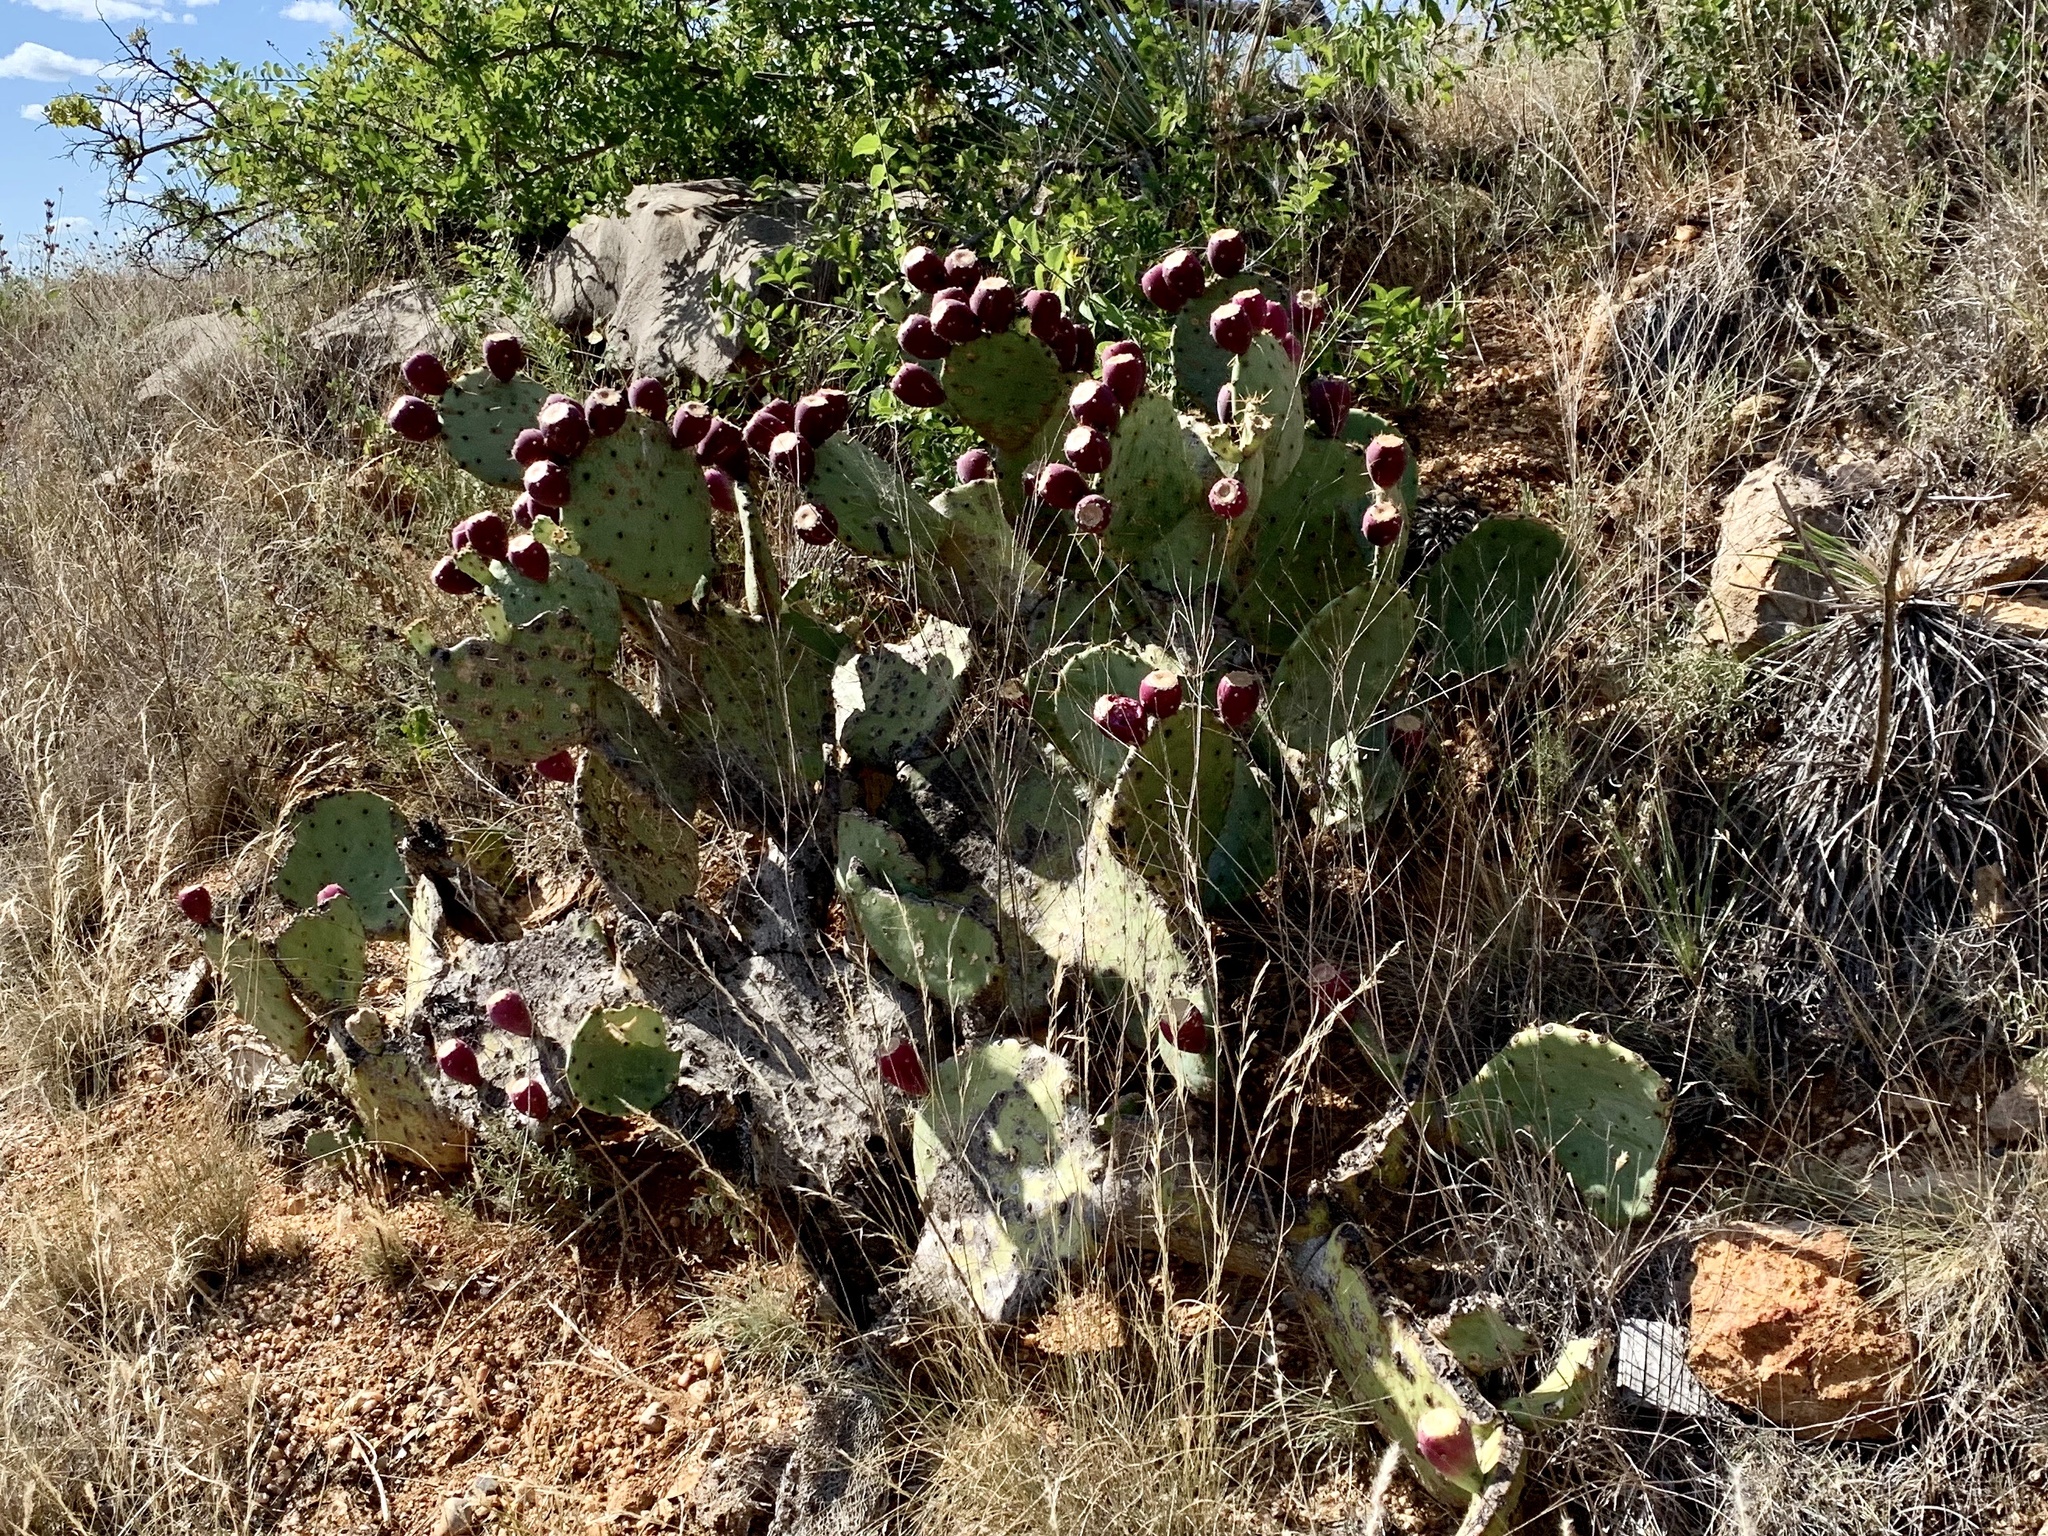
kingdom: Plantae
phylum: Tracheophyta
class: Magnoliopsida
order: Caryophyllales
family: Cactaceae
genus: Opuntia
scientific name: Opuntia engelmannii
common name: Cactus-apple
